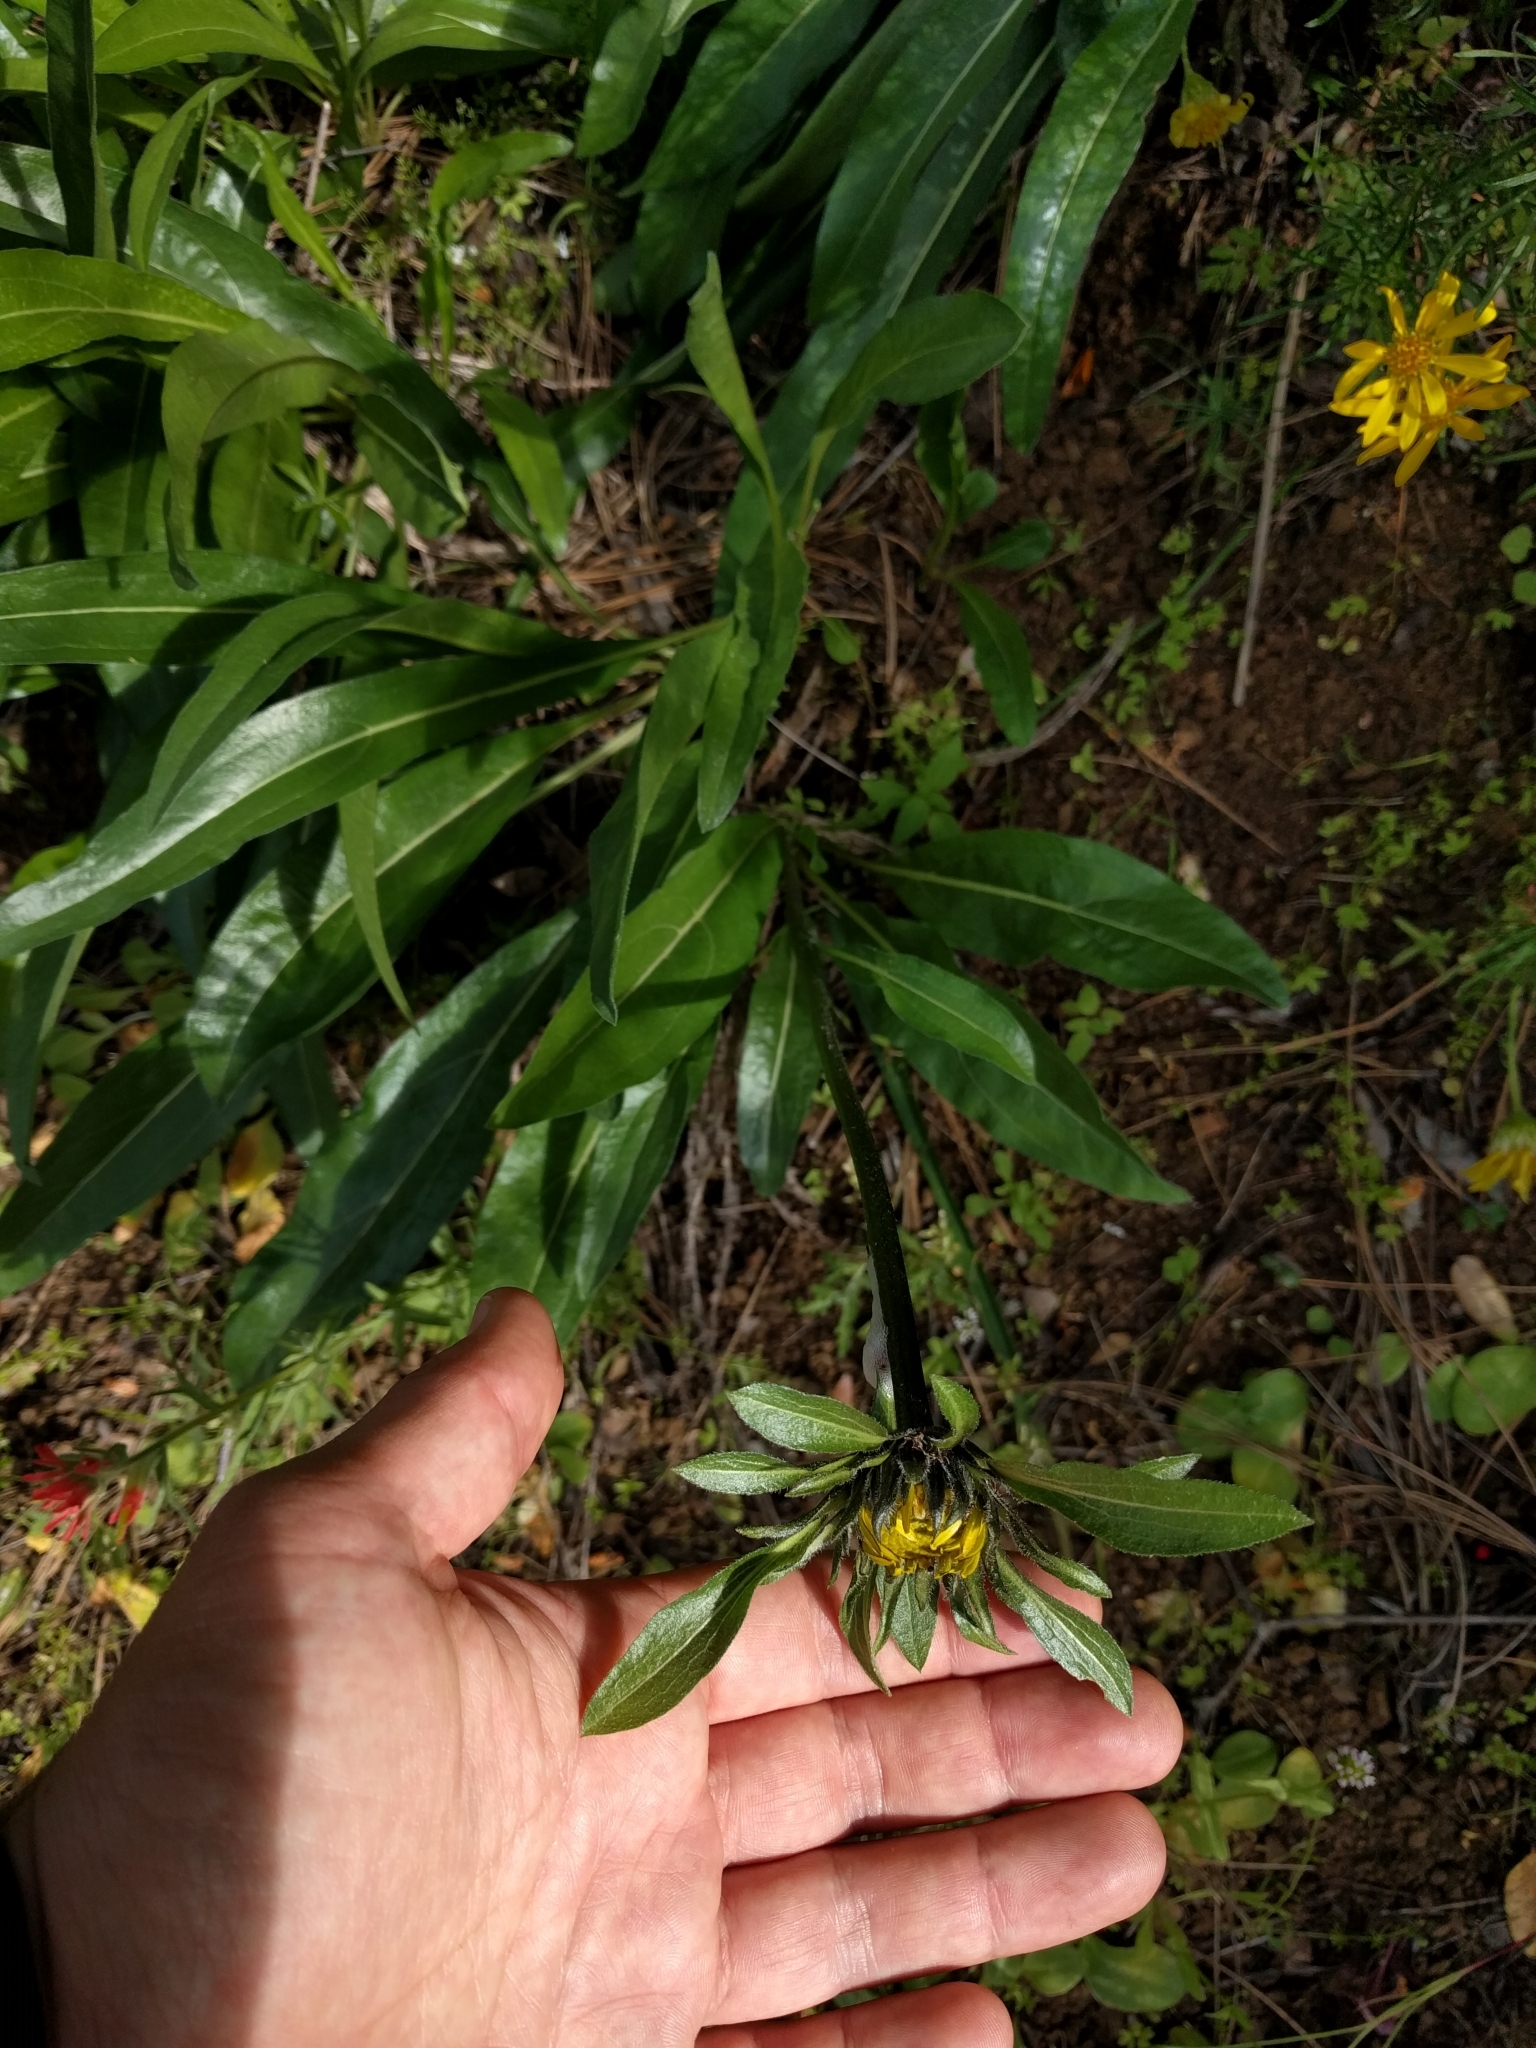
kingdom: Plantae
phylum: Tracheophyta
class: Magnoliopsida
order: Asterales
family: Asteraceae
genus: Helianthella
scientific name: Helianthella castanea
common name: Diablo helianthella
